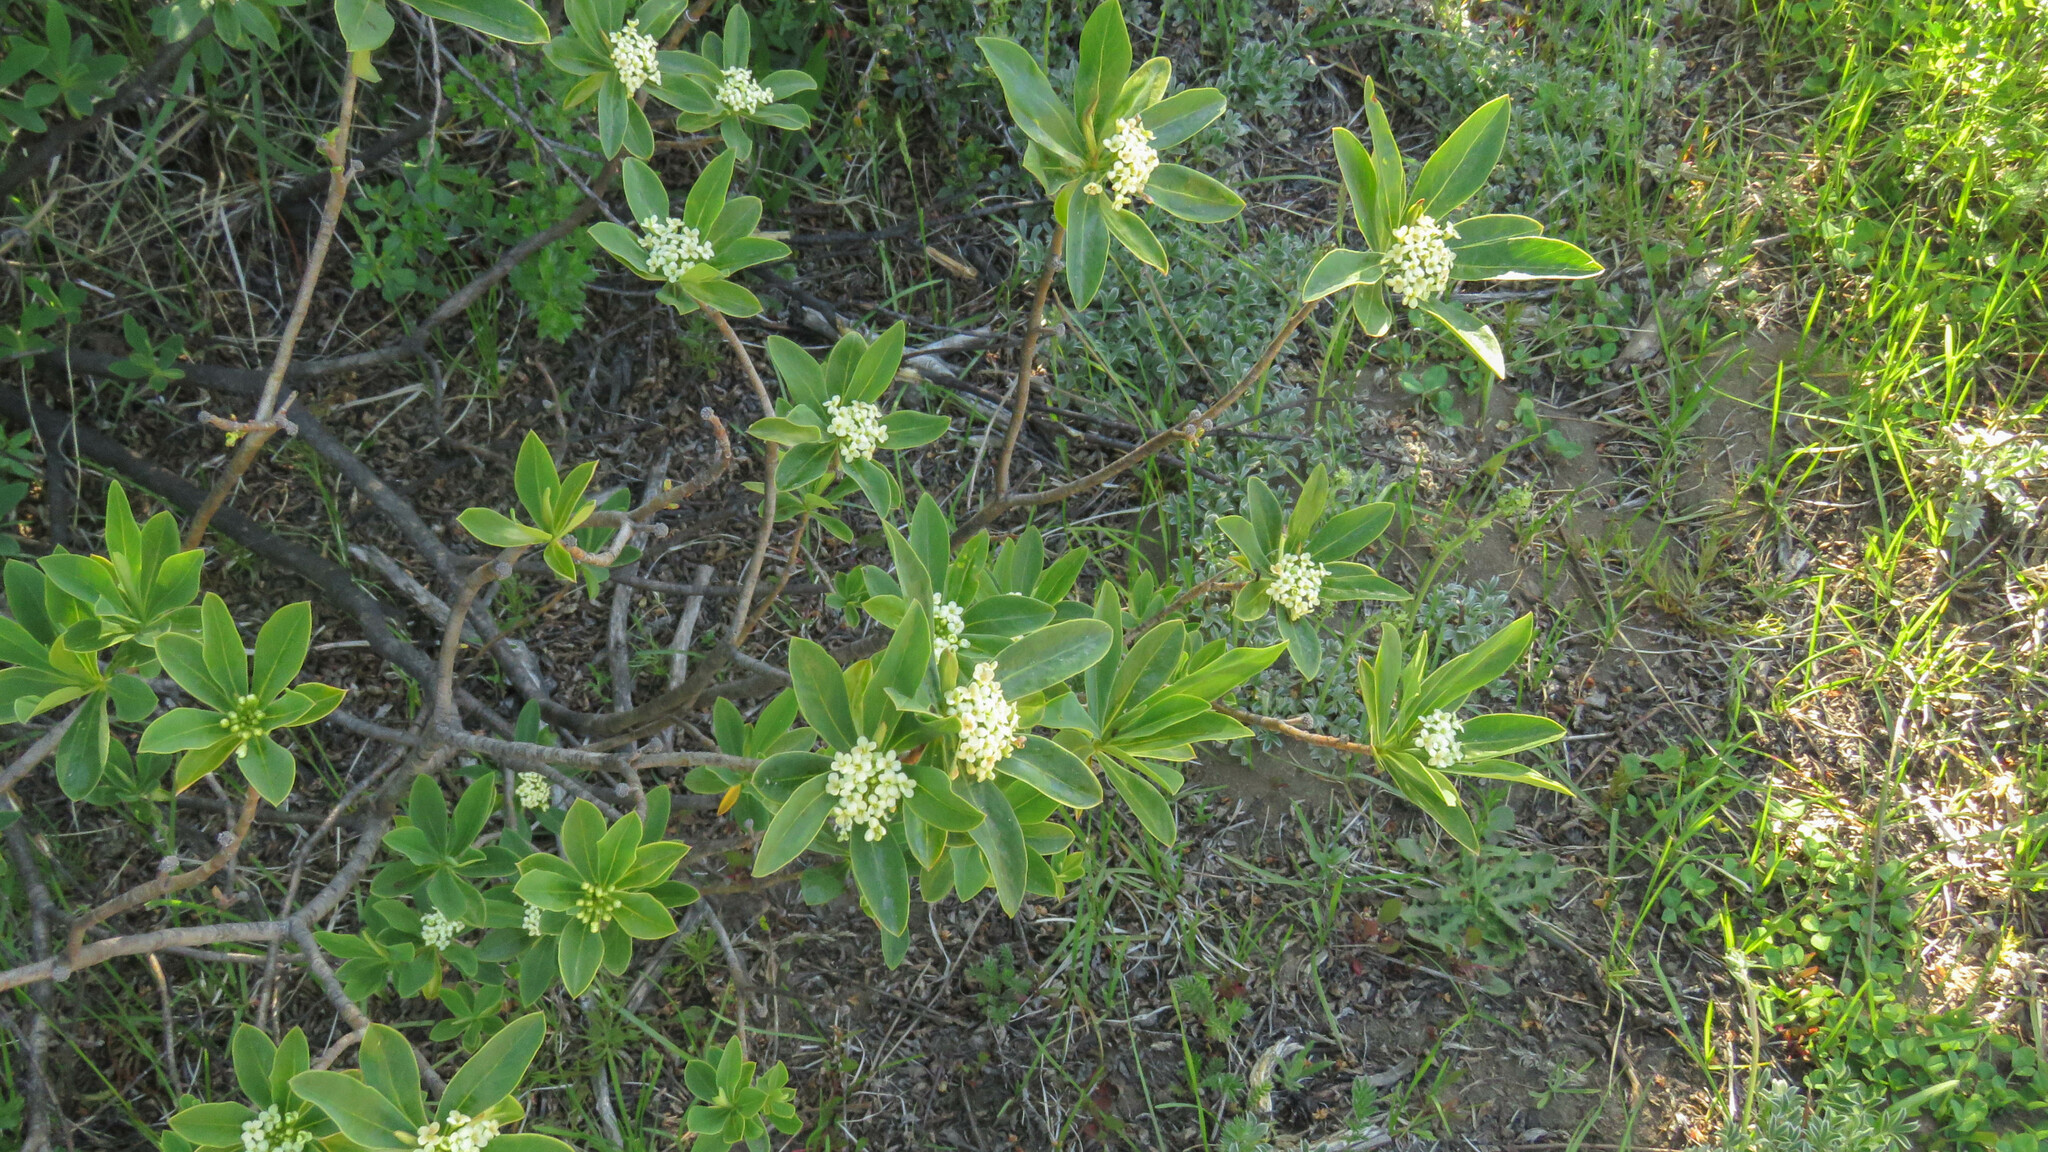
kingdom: Plantae
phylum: Tracheophyta
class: Magnoliopsida
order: Malvales
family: Thymelaeaceae
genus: Ovidia
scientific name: Ovidia andina
